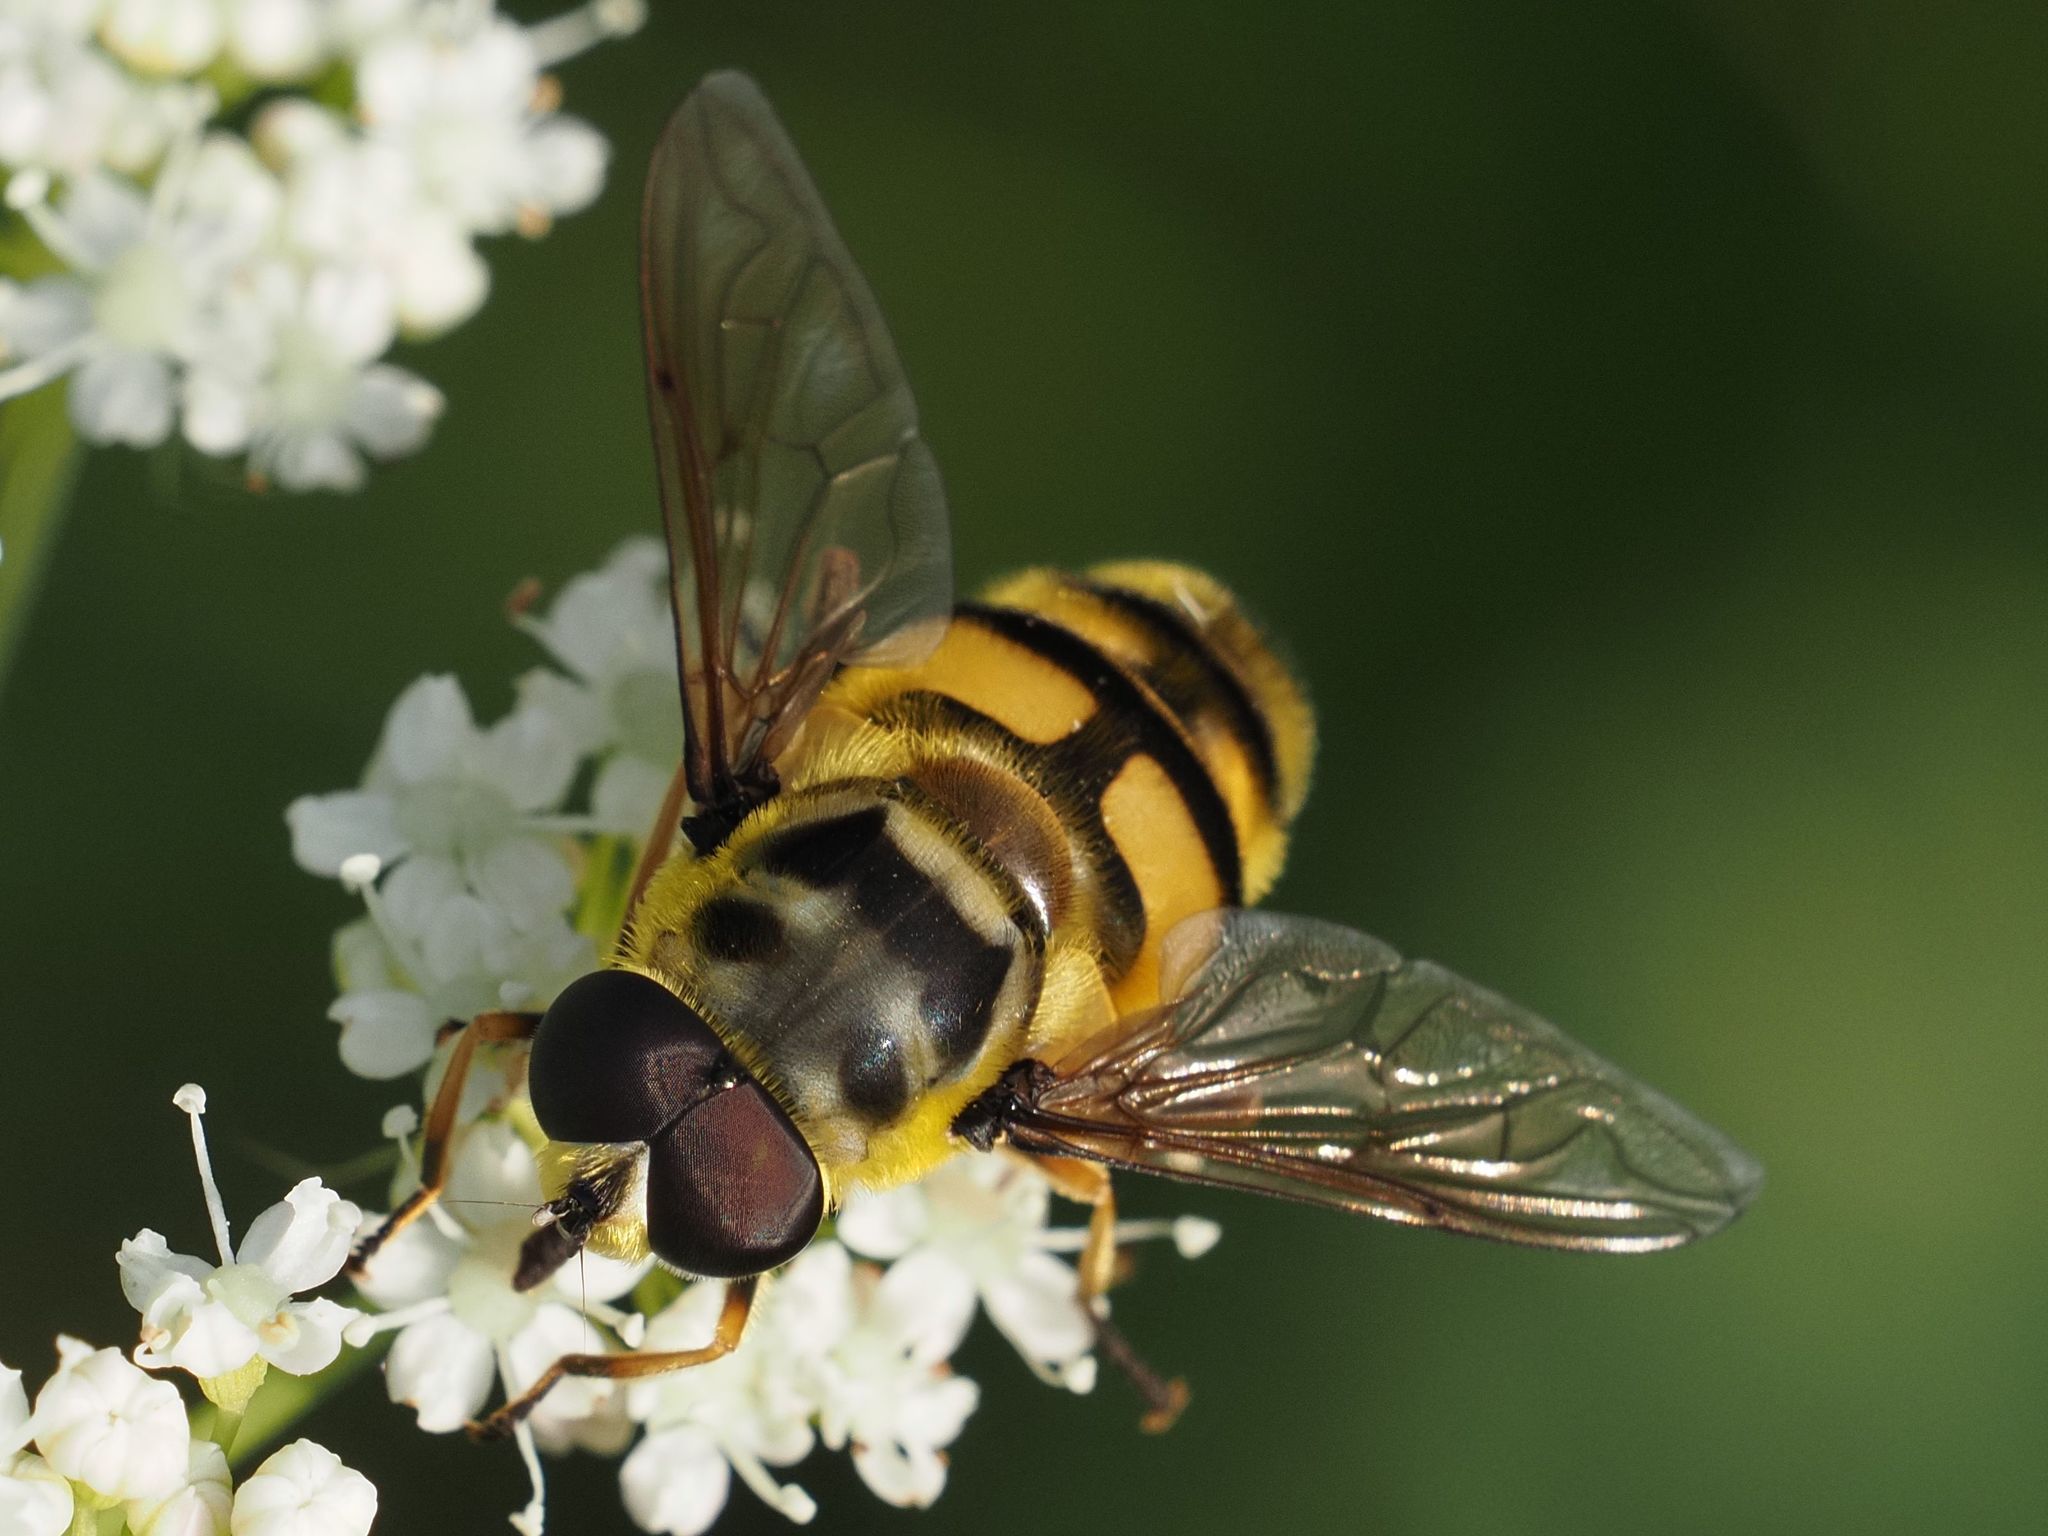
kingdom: Animalia
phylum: Arthropoda
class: Insecta
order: Diptera
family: Syrphidae
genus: Myathropa
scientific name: Myathropa florea
